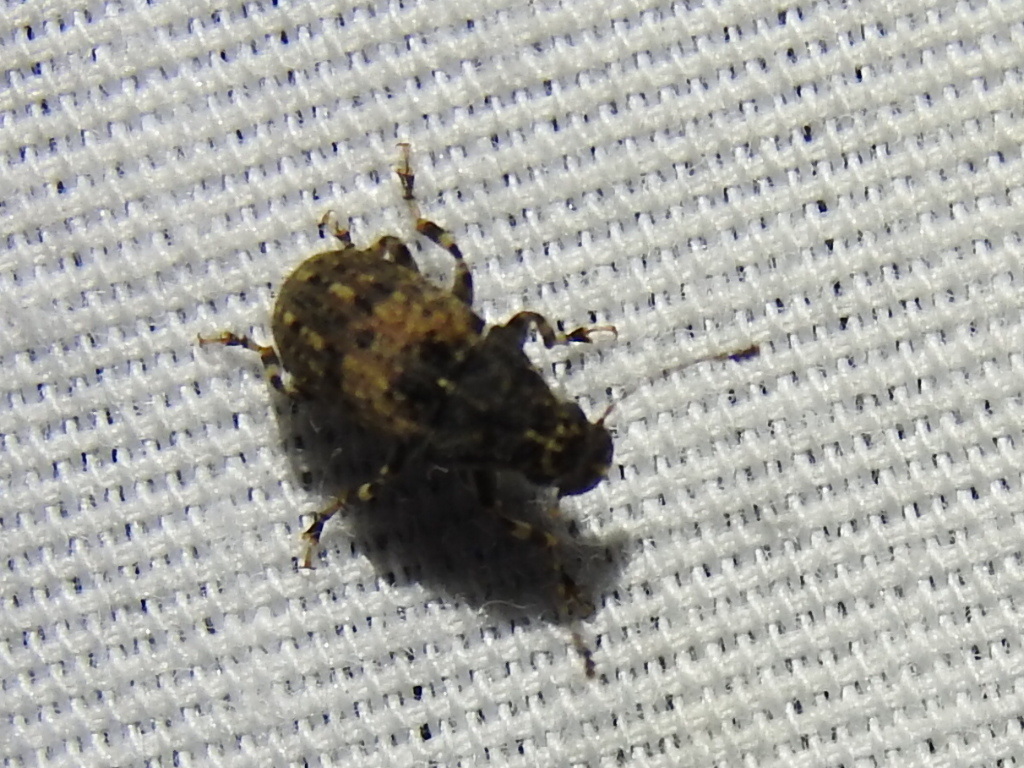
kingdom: Animalia
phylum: Arthropoda
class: Insecta
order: Coleoptera
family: Anthribidae
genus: Euparius
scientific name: Euparius subtessellatus
